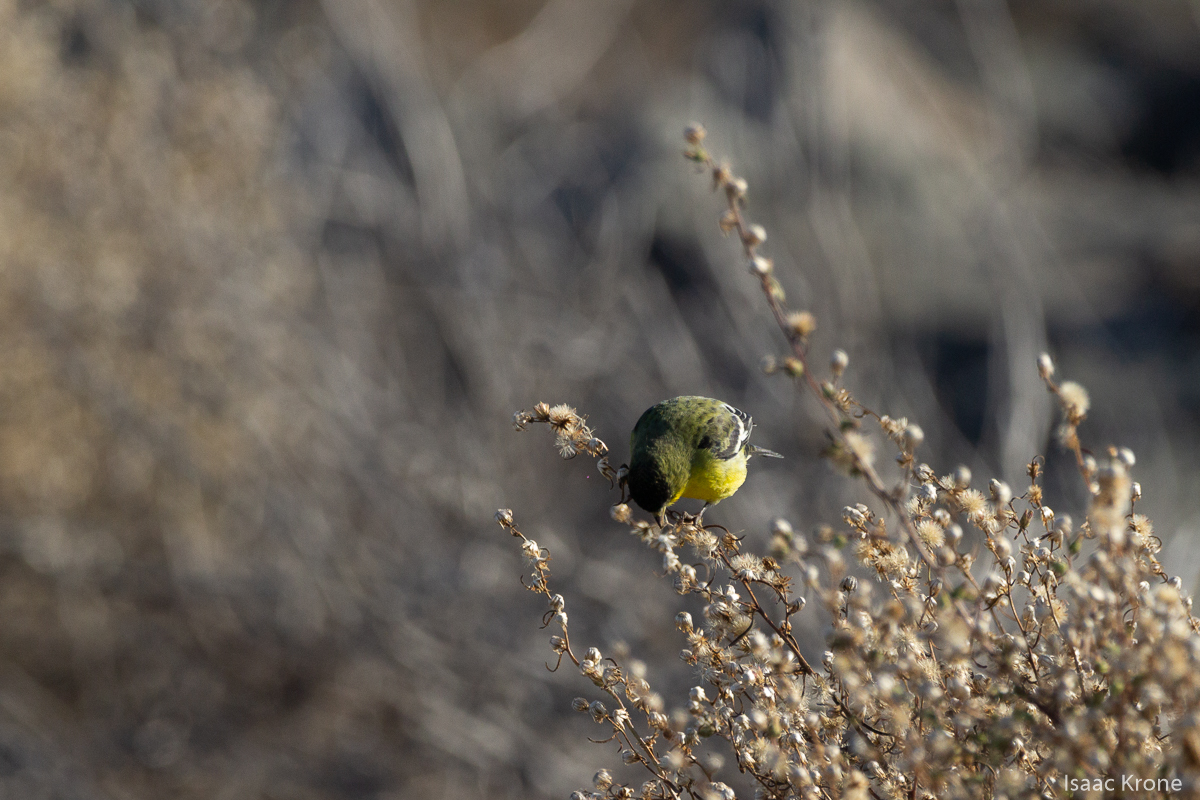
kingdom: Animalia
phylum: Chordata
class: Aves
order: Passeriformes
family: Fringillidae
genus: Spinus
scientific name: Spinus psaltria
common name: Lesser goldfinch
